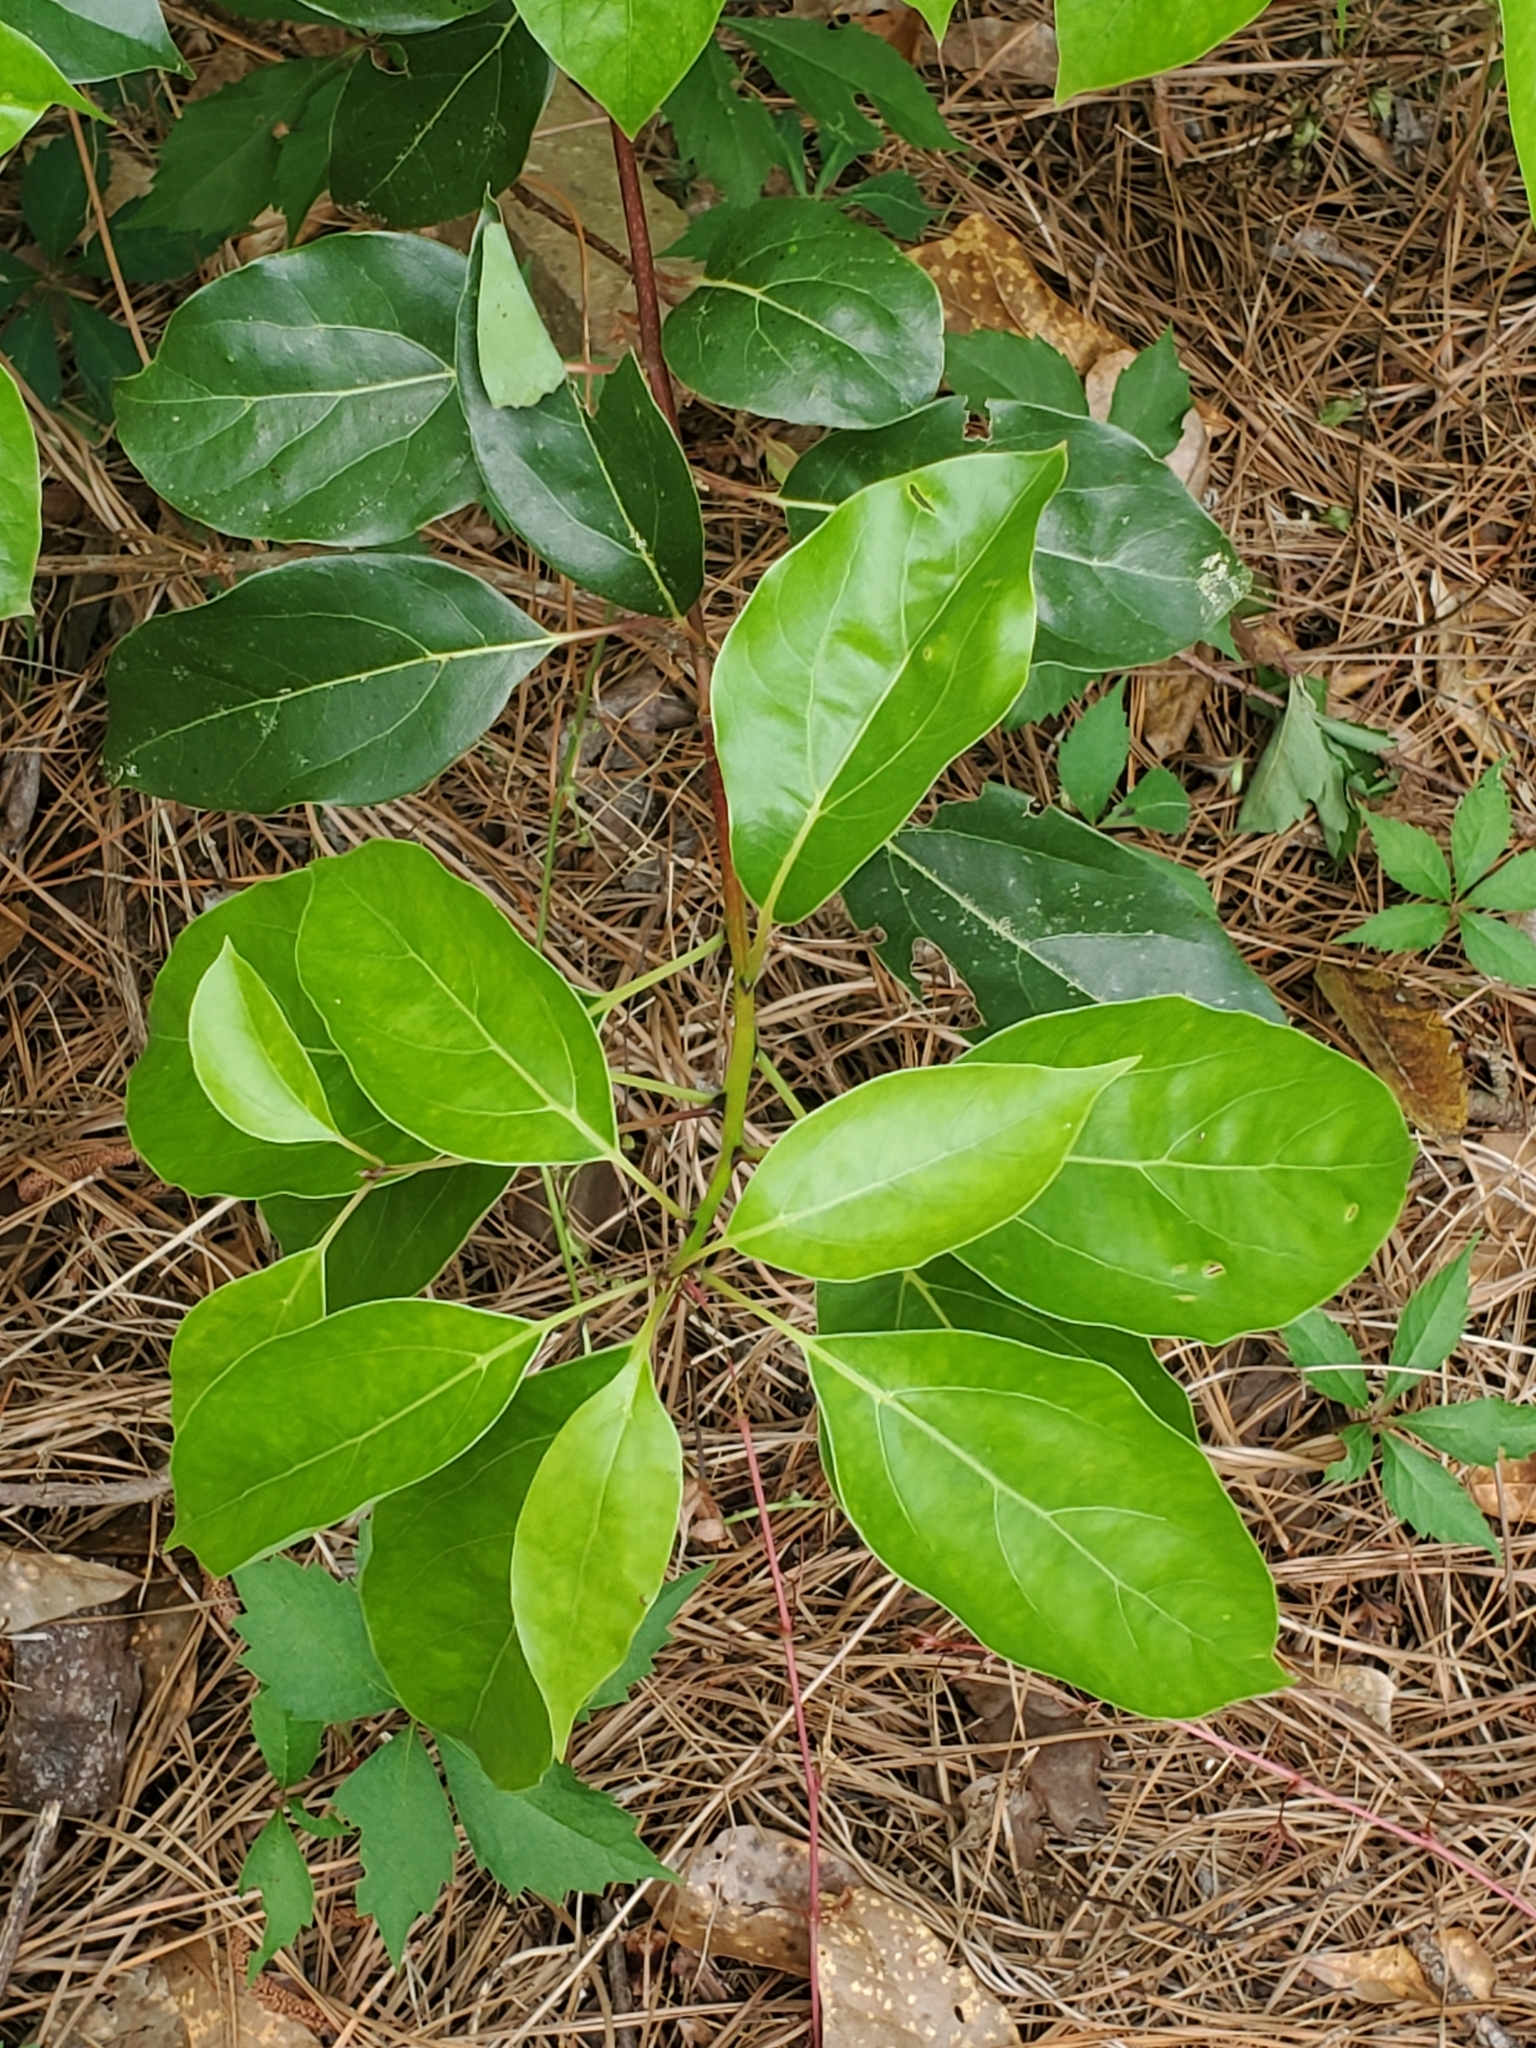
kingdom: Plantae
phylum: Tracheophyta
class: Magnoliopsida
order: Laurales
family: Lauraceae
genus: Cinnamomum
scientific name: Cinnamomum camphora
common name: Camphortree
